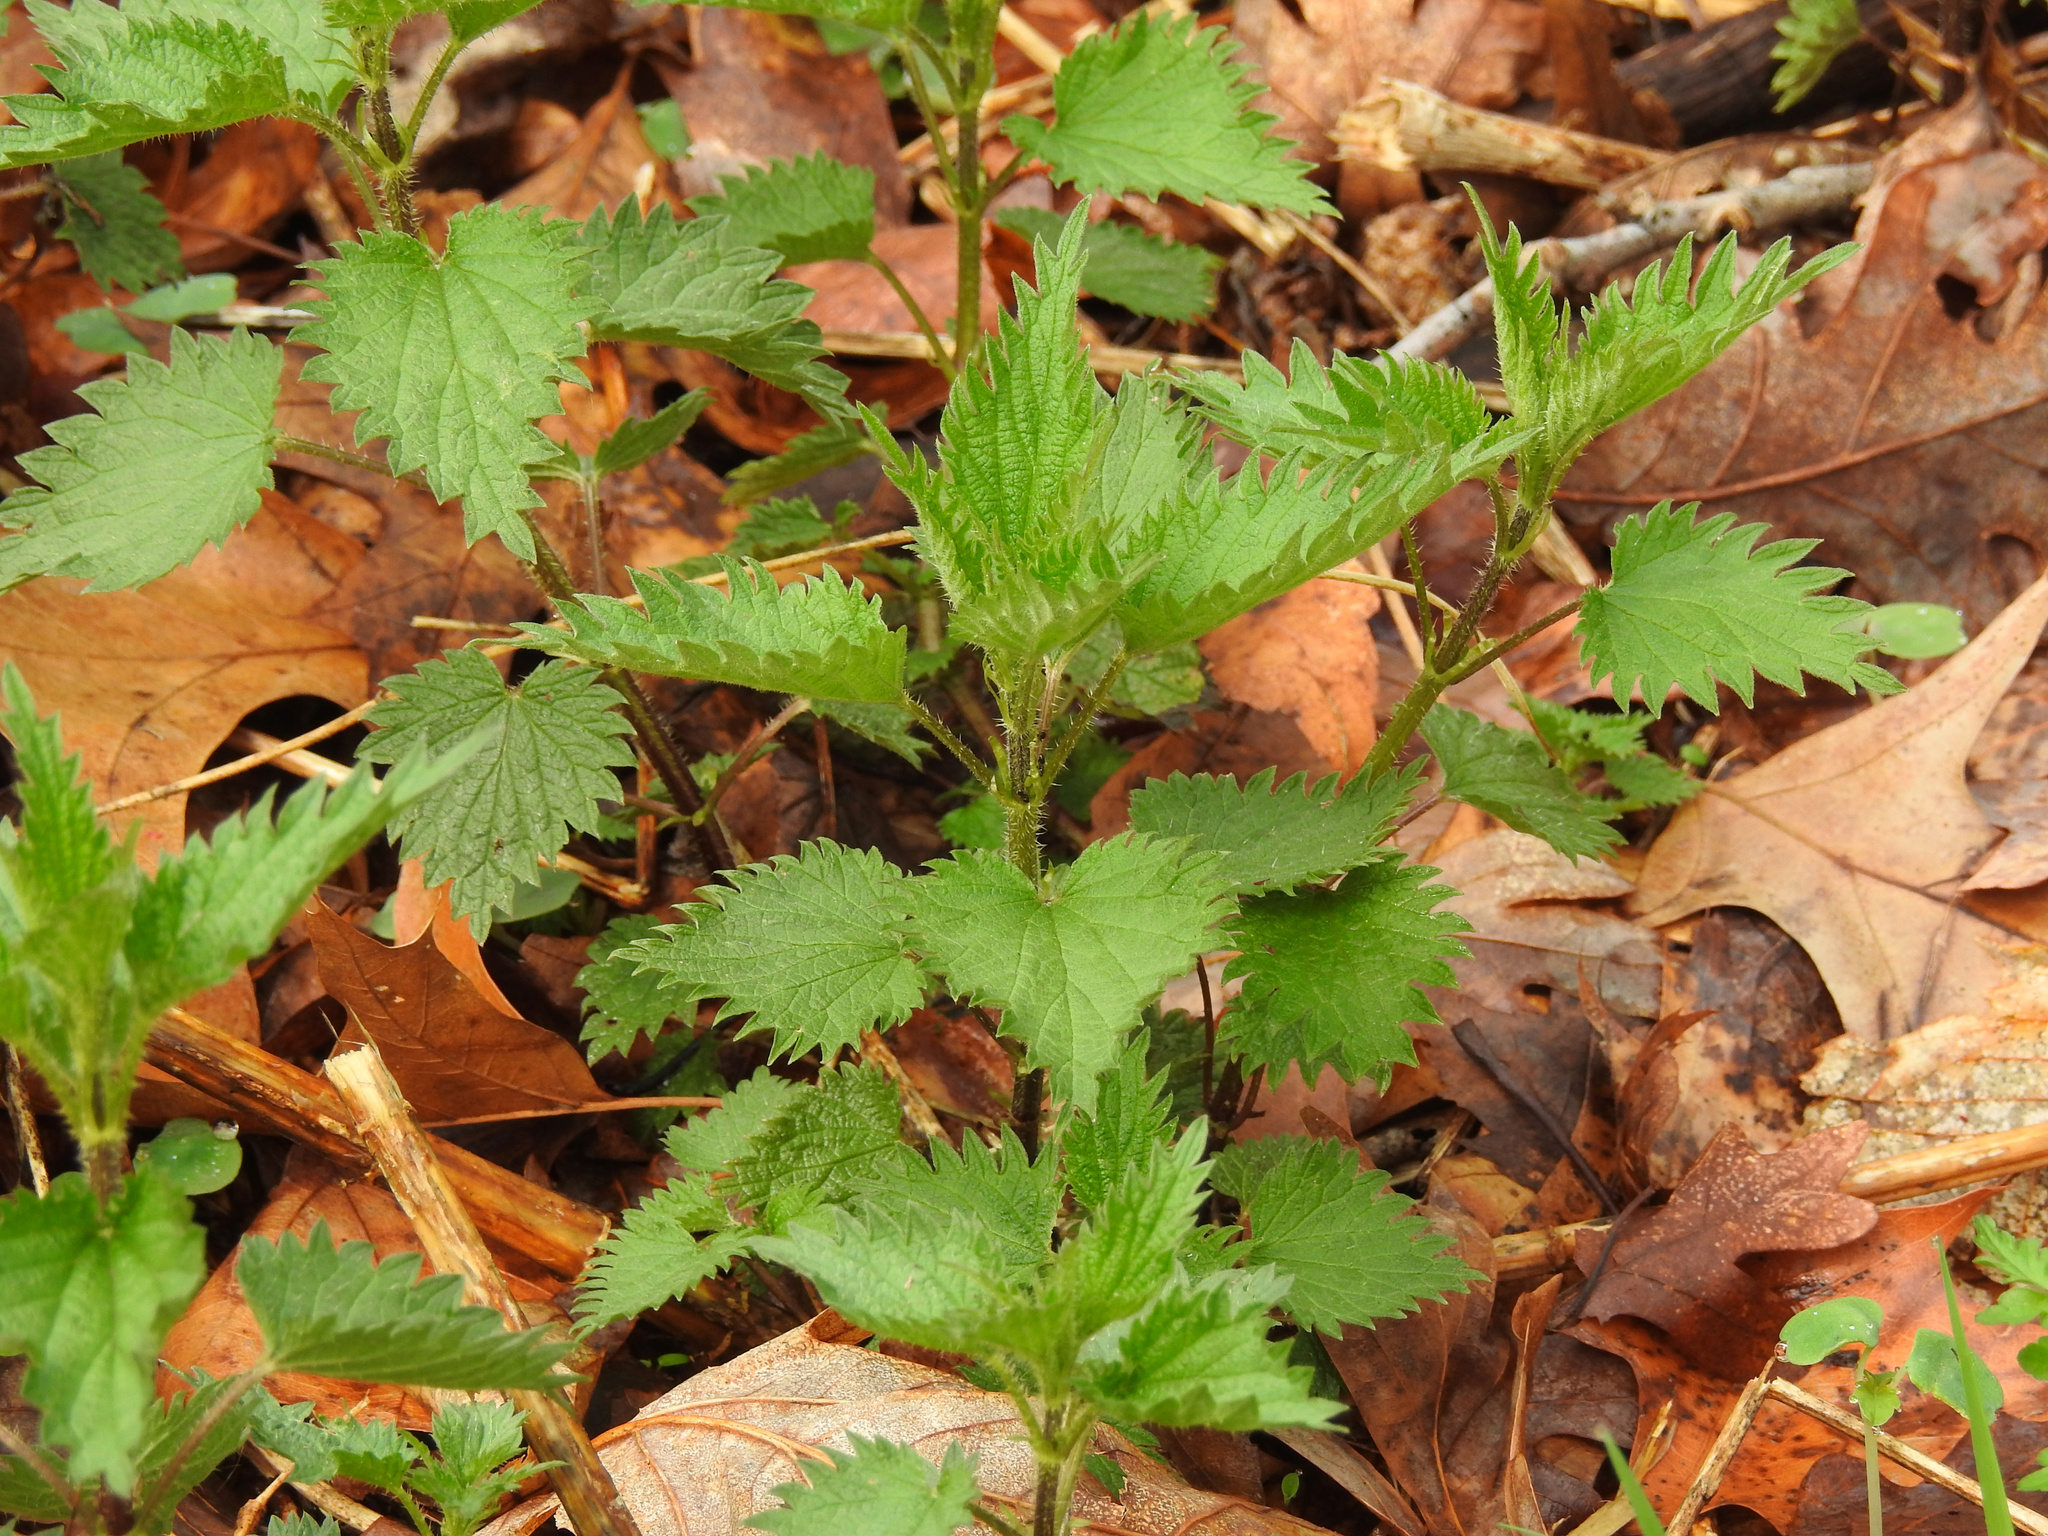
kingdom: Plantae
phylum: Tracheophyta
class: Magnoliopsida
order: Rosales
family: Urticaceae
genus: Urtica
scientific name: Urtica dioica
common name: Common nettle
